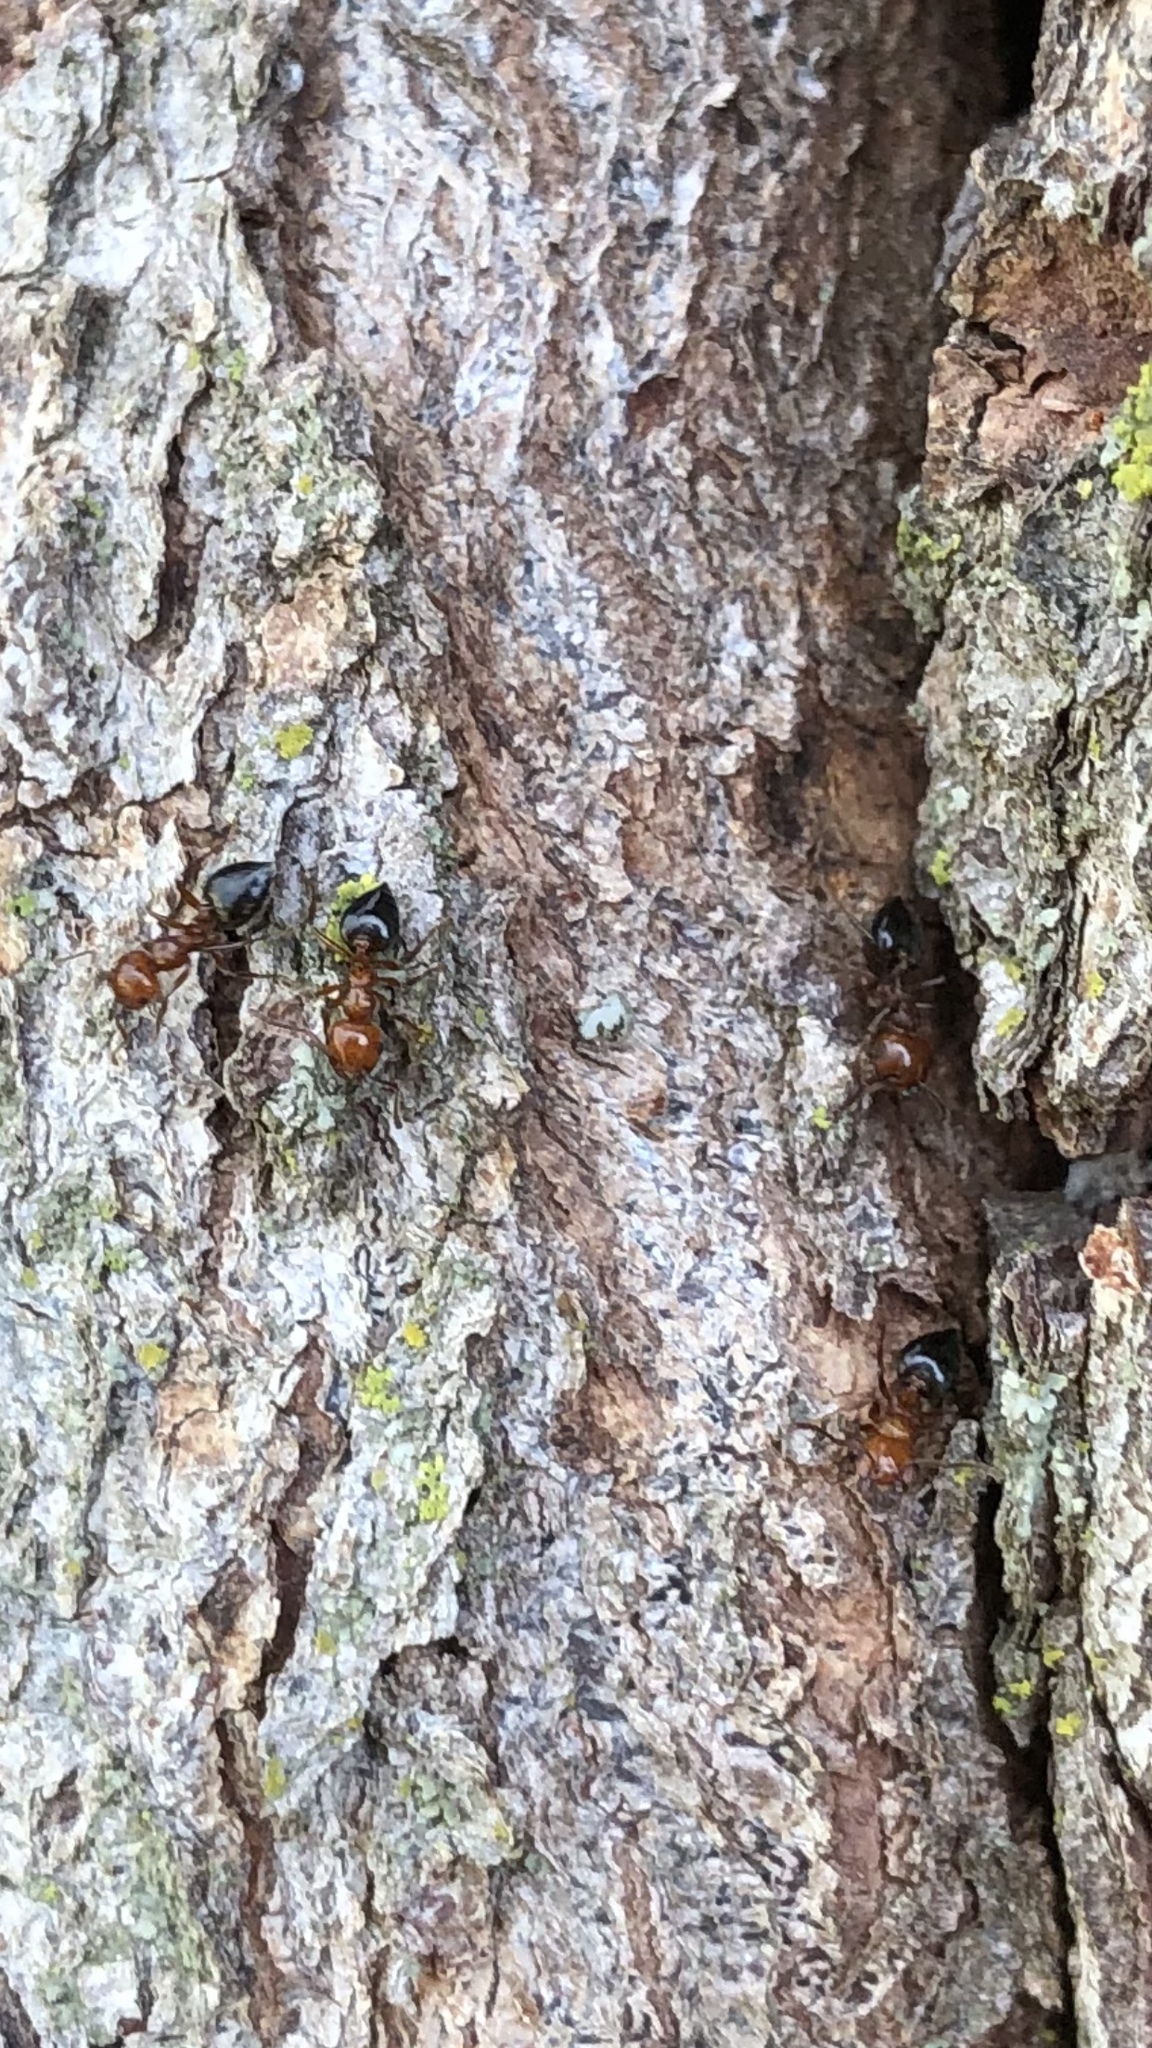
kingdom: Animalia
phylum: Arthropoda
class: Insecta
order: Hymenoptera
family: Formicidae
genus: Crematogaster
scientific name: Crematogaster laeviuscula
